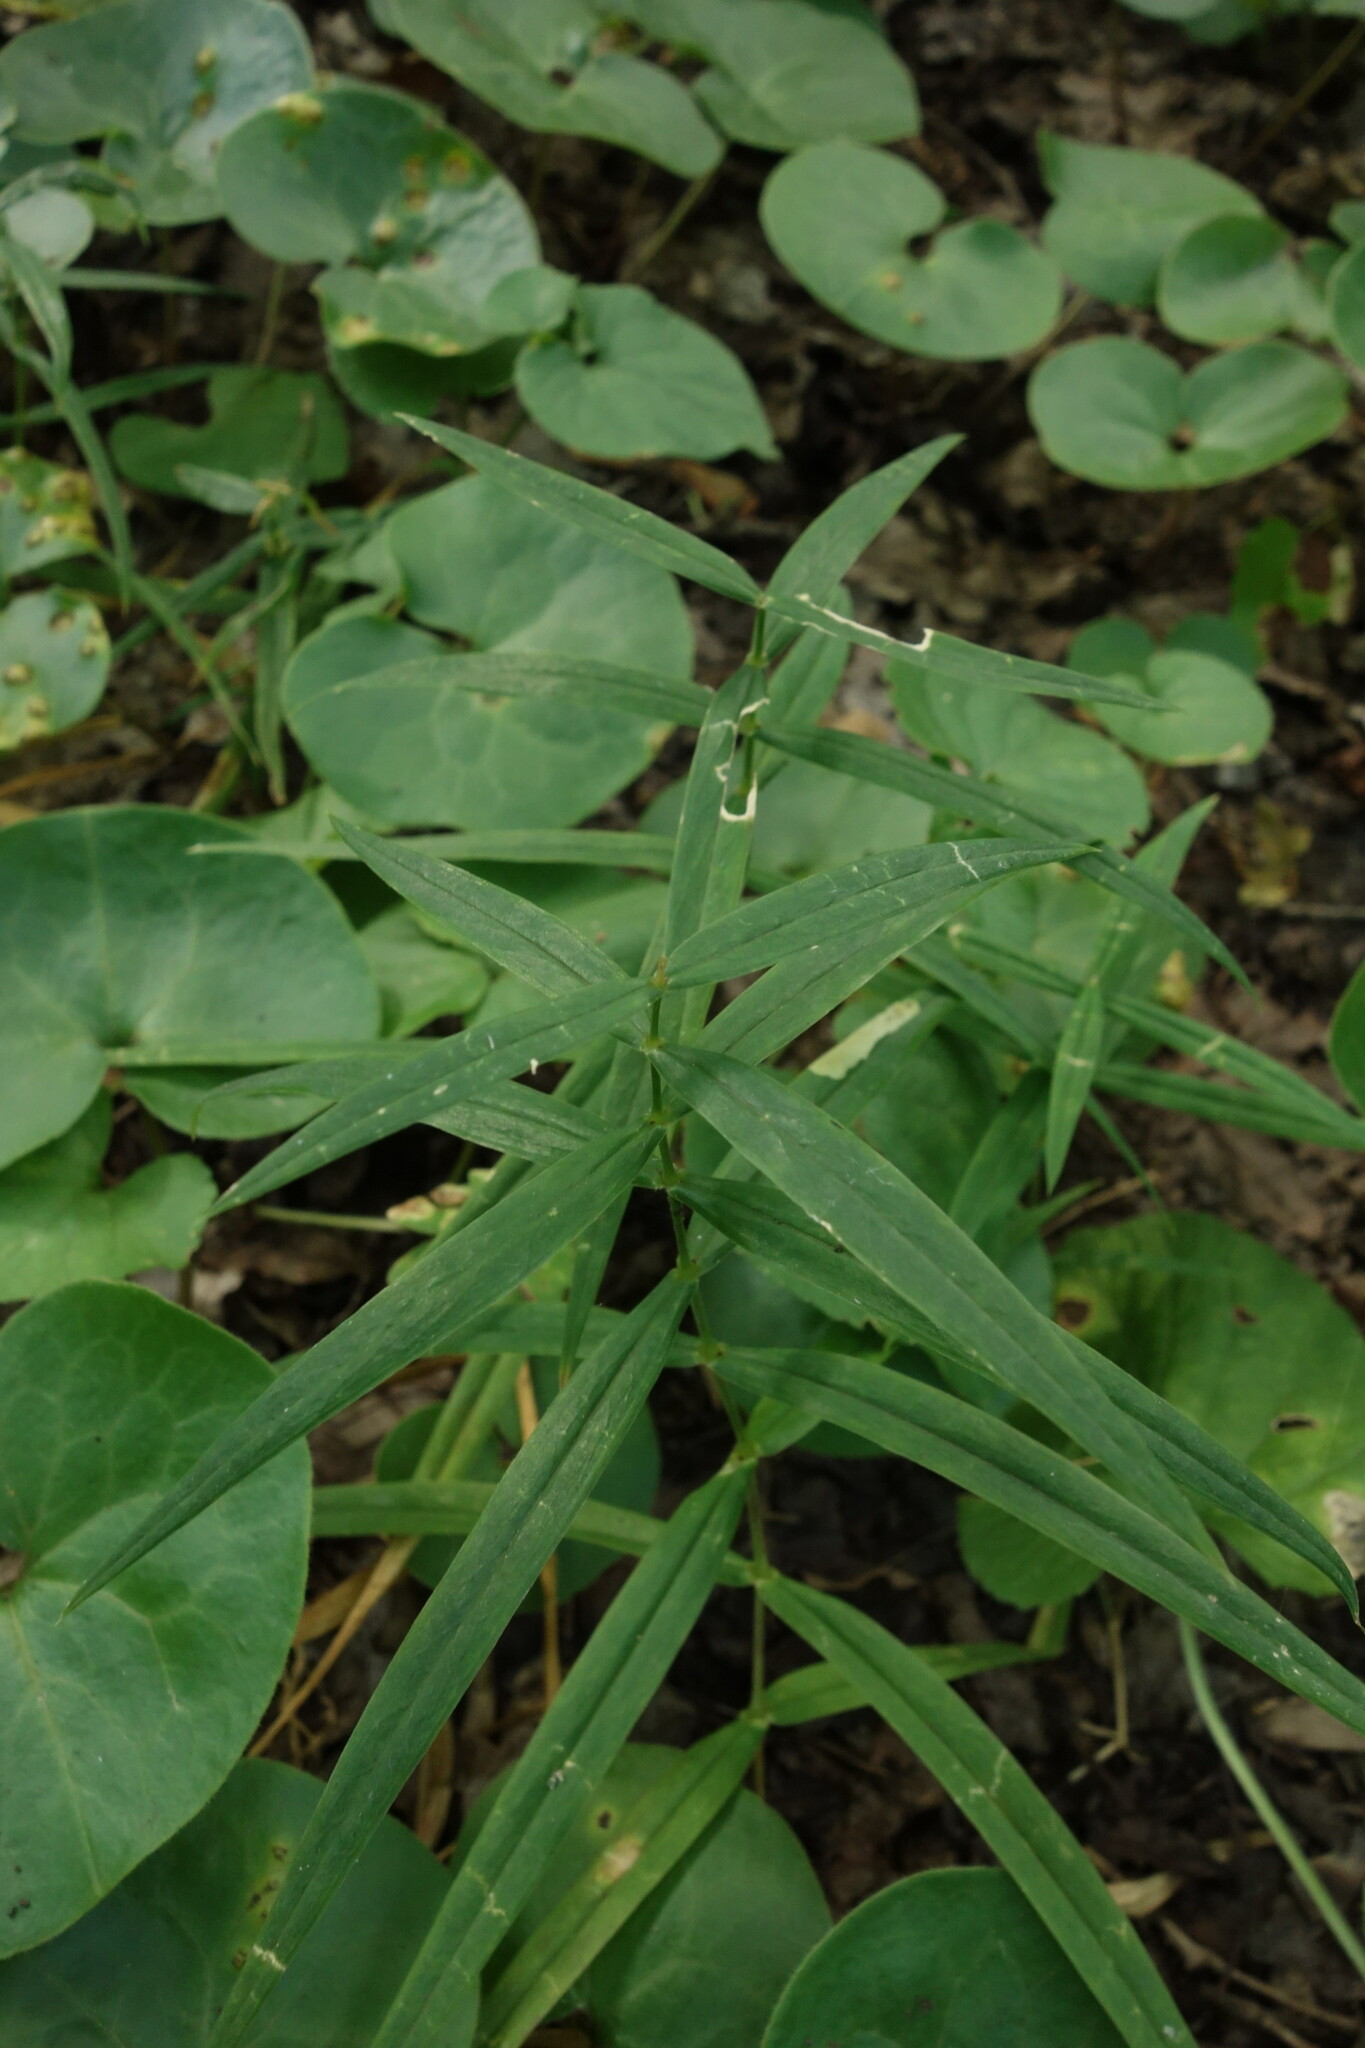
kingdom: Plantae
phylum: Tracheophyta
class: Magnoliopsida
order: Caryophyllales
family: Caryophyllaceae
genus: Rabelera
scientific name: Rabelera holostea
